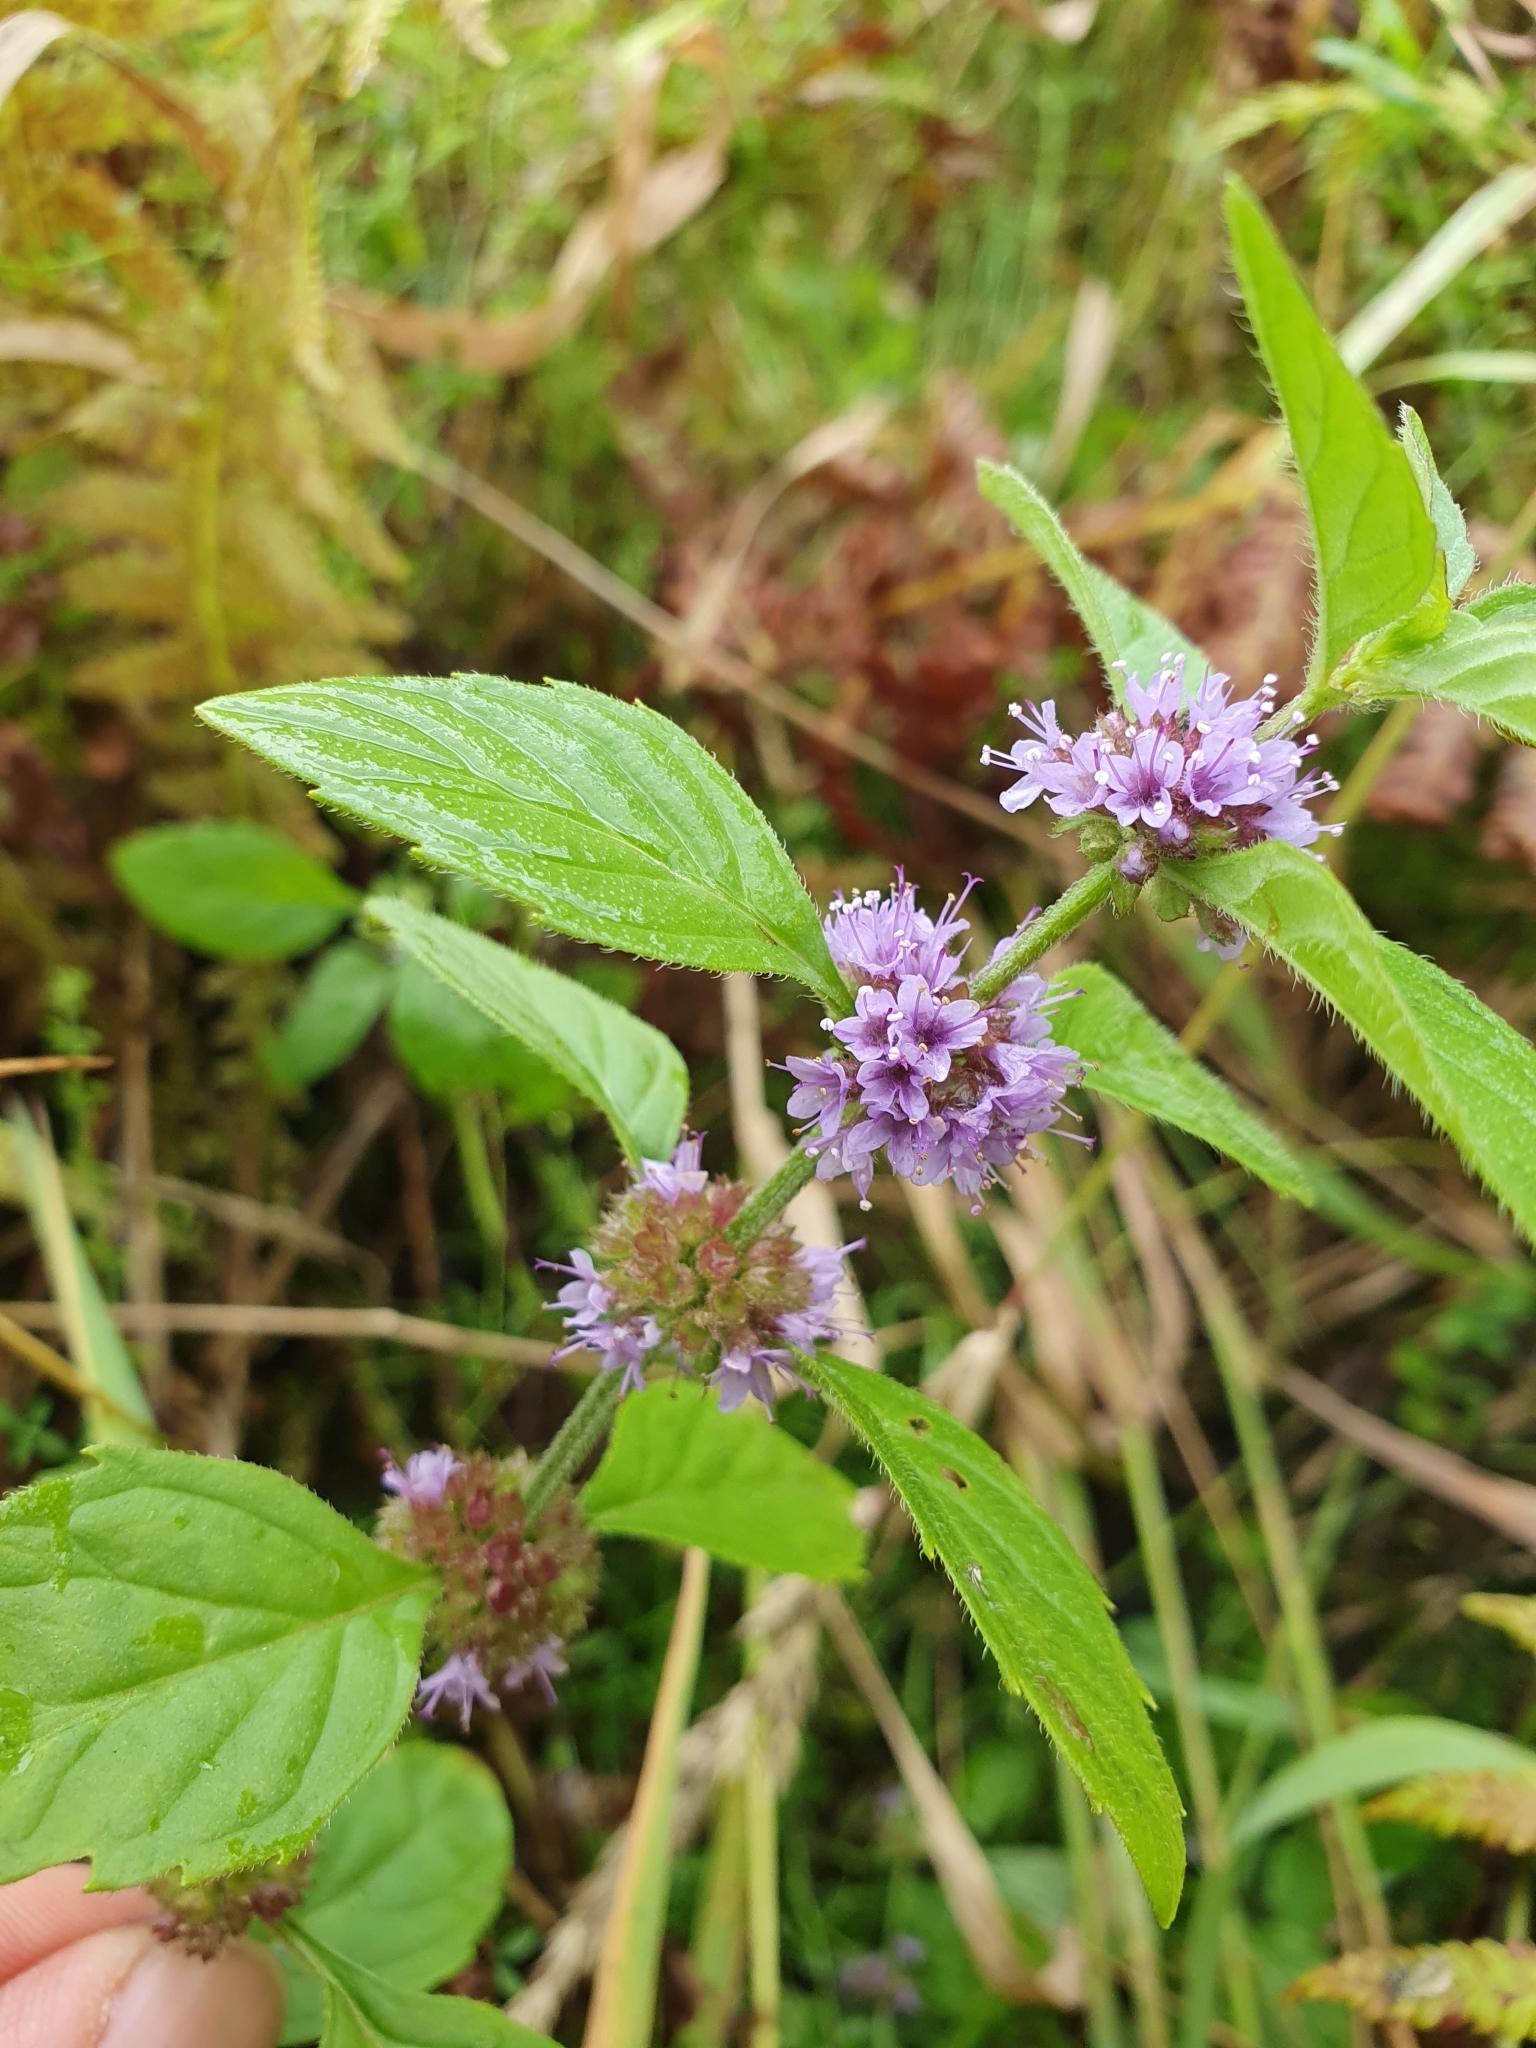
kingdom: Plantae
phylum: Tracheophyta
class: Magnoliopsida
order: Lamiales
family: Lamiaceae
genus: Mentha
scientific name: Mentha aquatica
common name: Water mint
